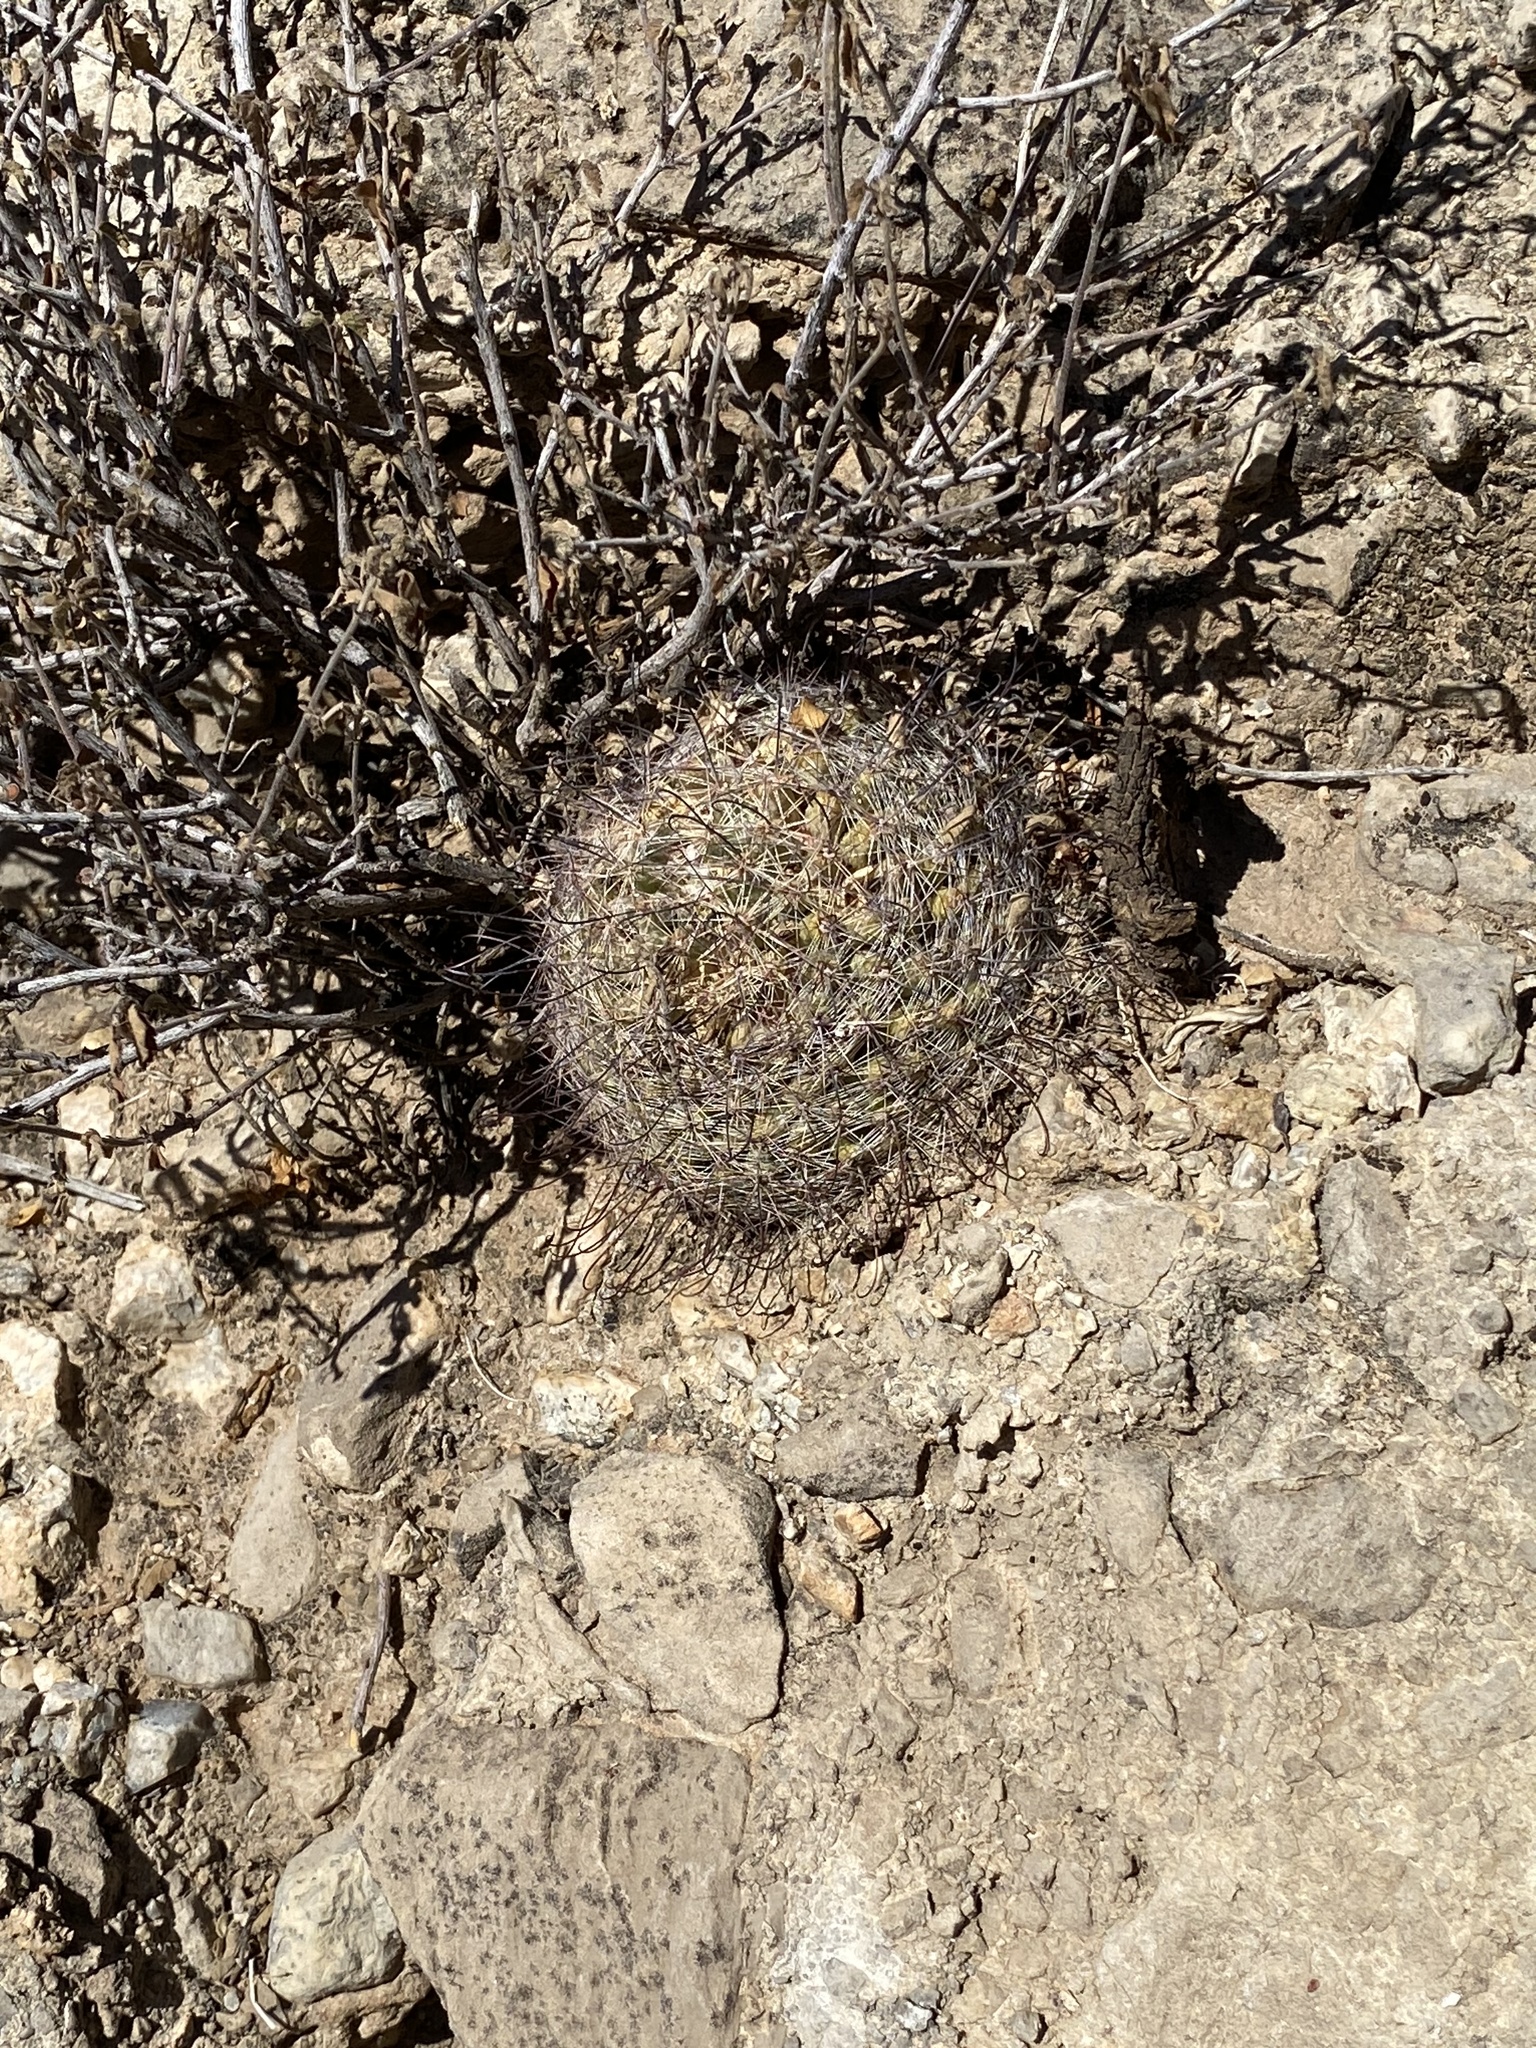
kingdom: Plantae
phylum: Tracheophyta
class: Magnoliopsida
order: Caryophyllales
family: Cactaceae
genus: Cochemiea
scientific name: Cochemiea grahamii
